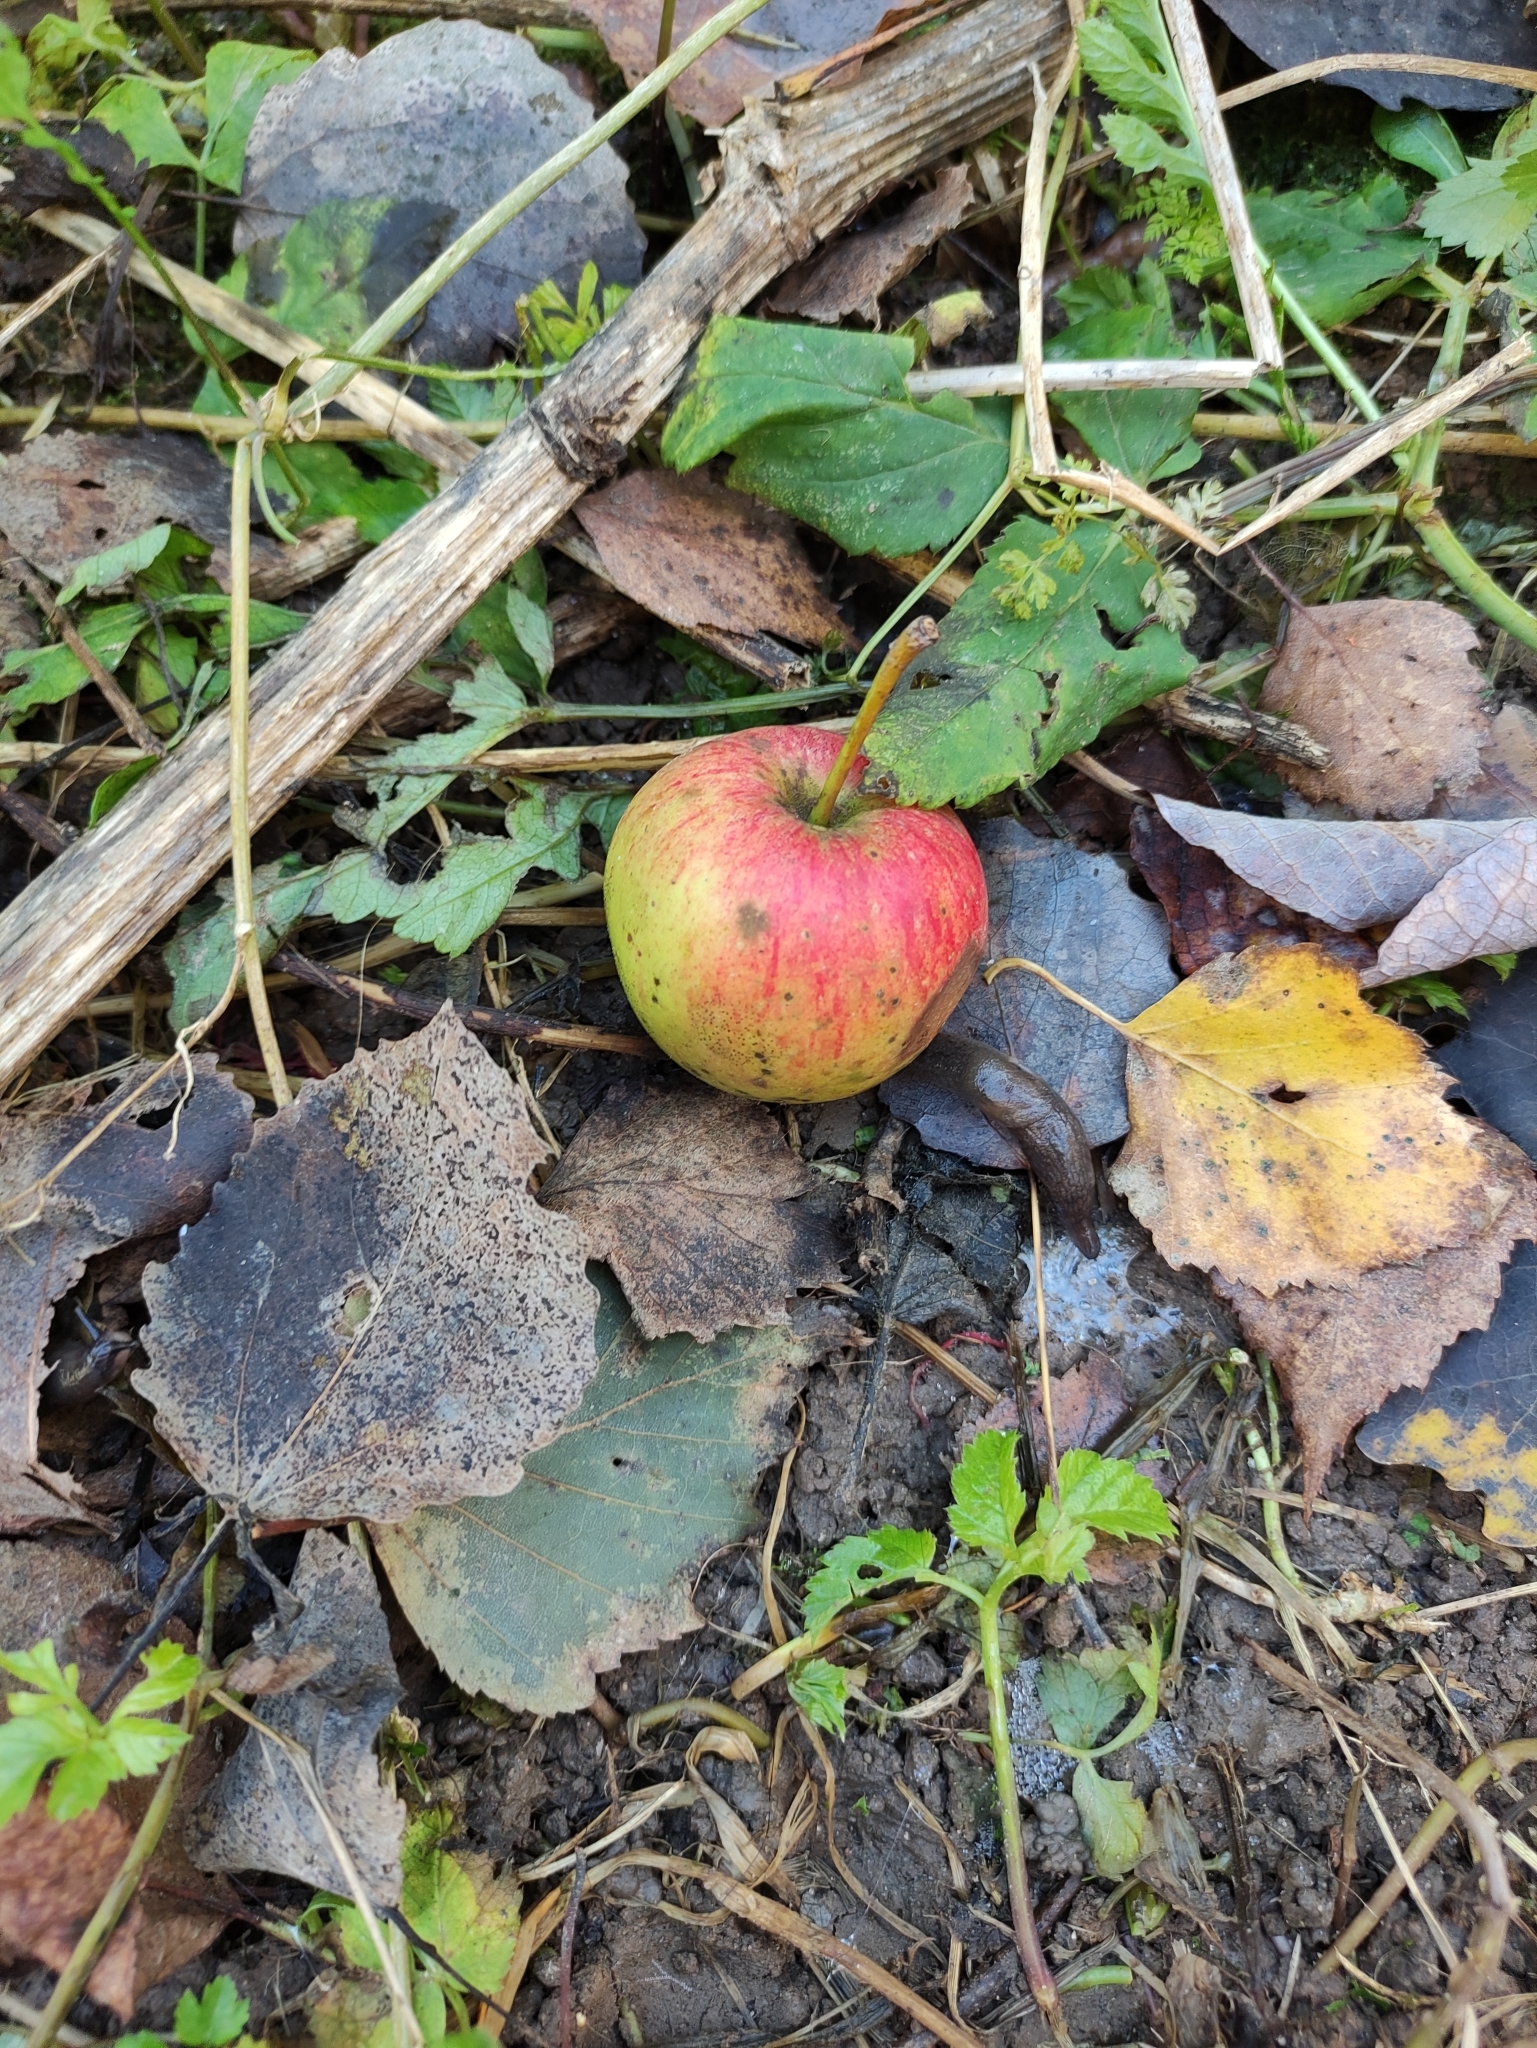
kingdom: Plantae
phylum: Tracheophyta
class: Magnoliopsida
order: Rosales
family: Rosaceae
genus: Malus
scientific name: Malus domestica
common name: Apple
